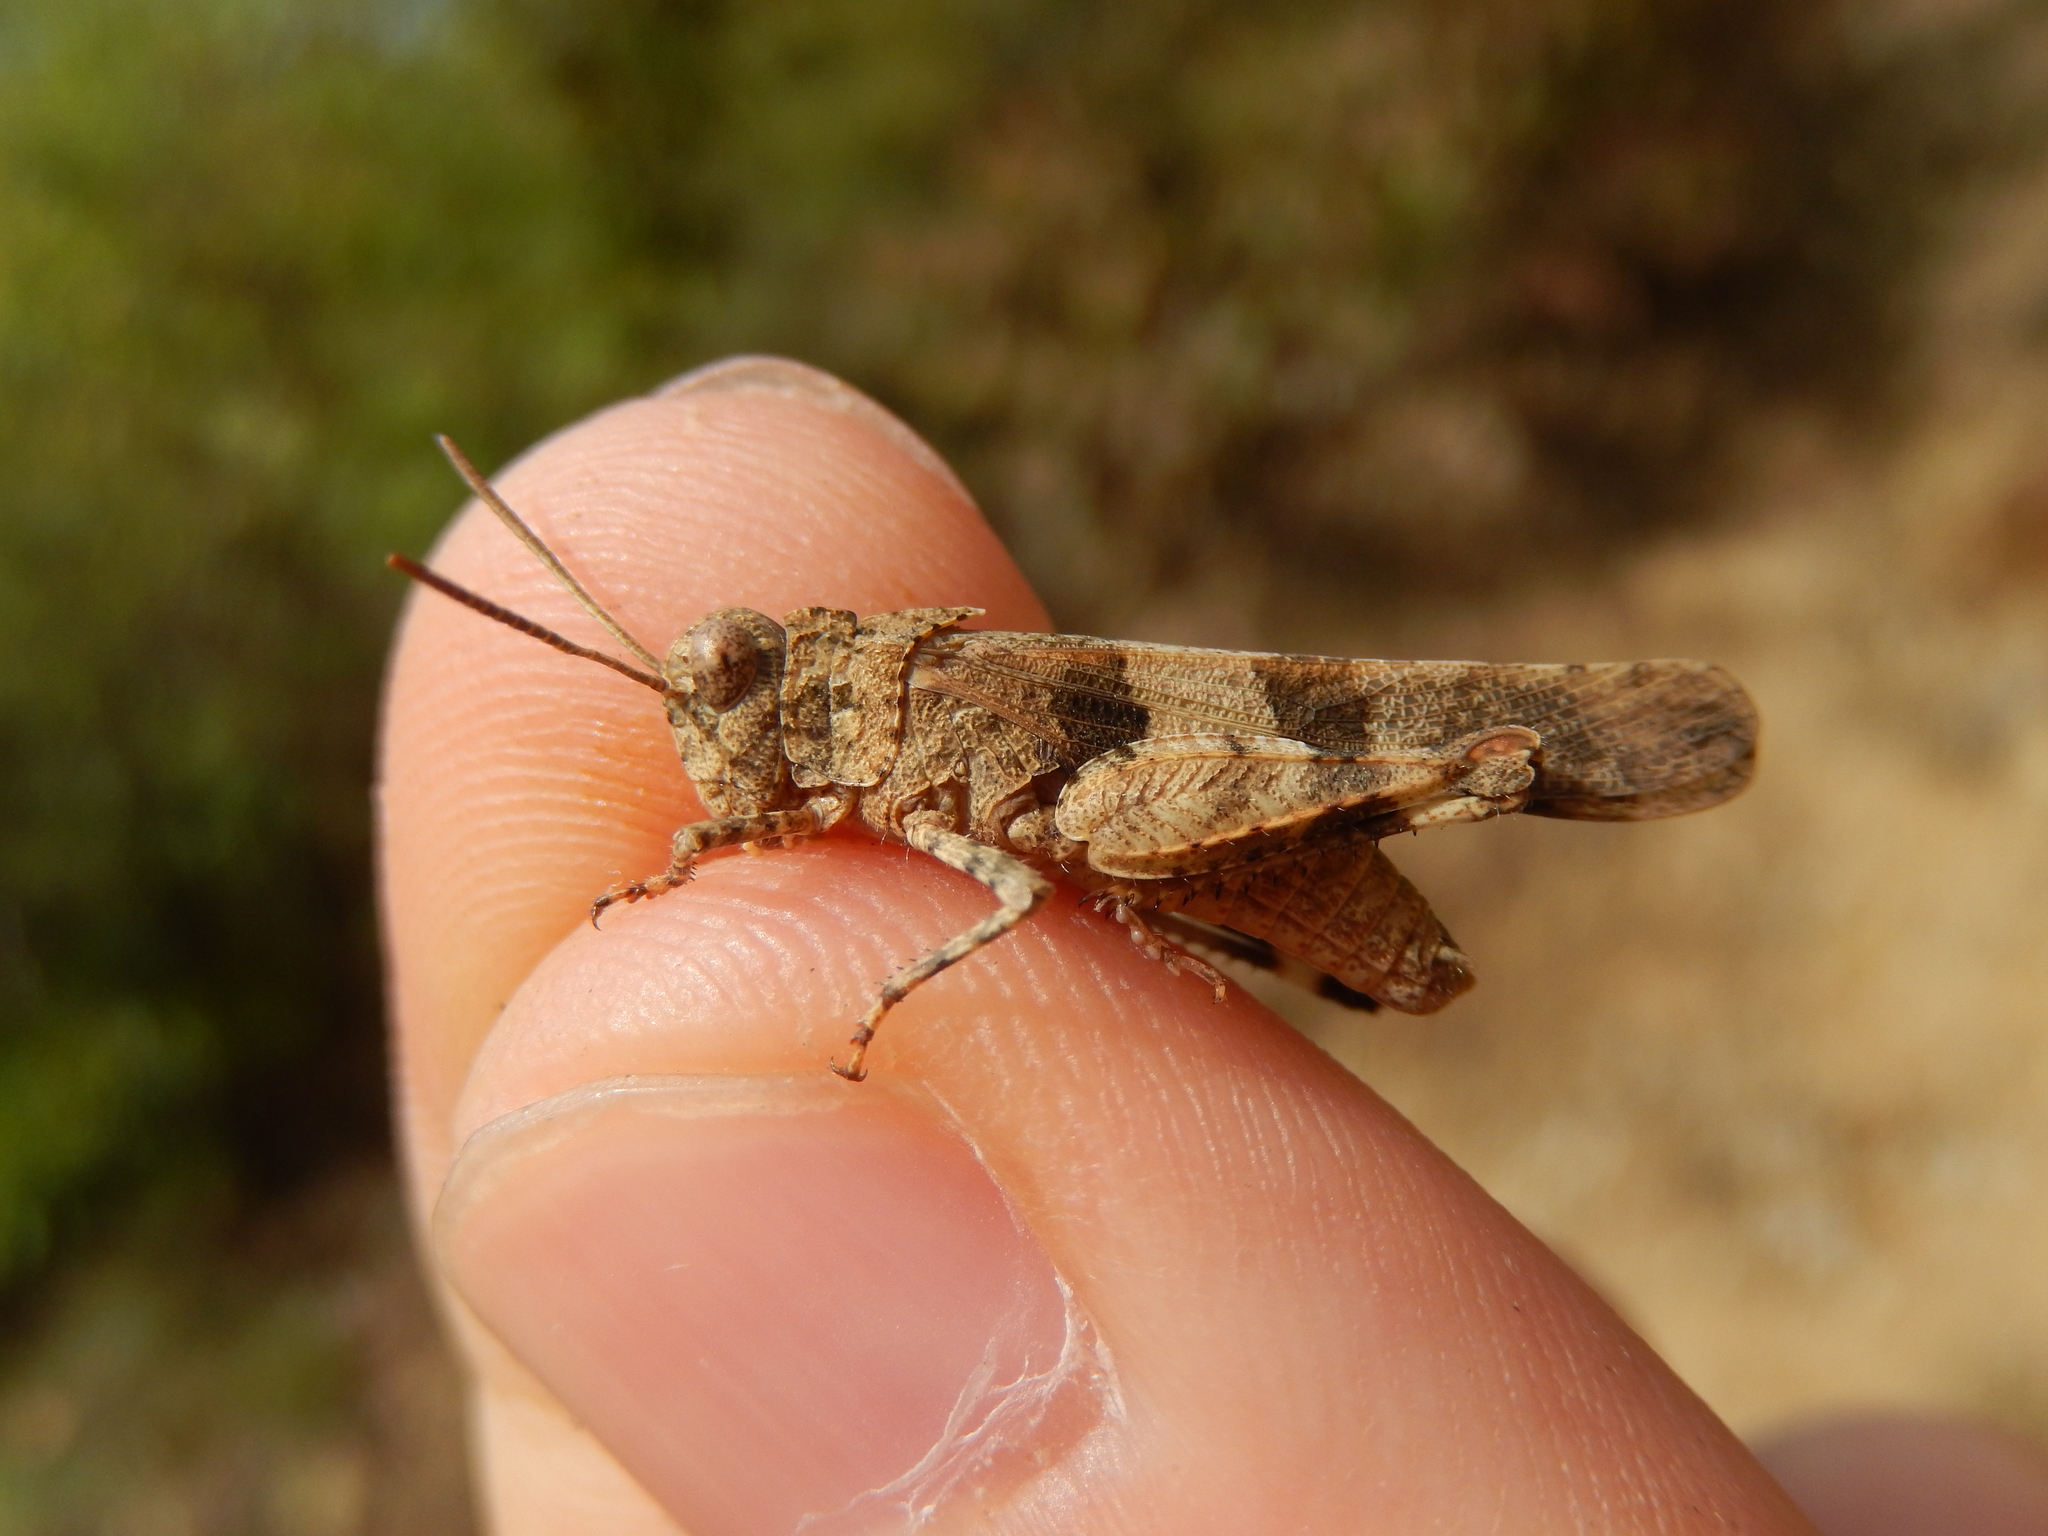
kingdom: Animalia
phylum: Arthropoda
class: Insecta
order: Orthoptera
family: Acrididae
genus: Oedipoda
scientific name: Oedipoda caerulescens
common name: Blue-winged grasshopper
